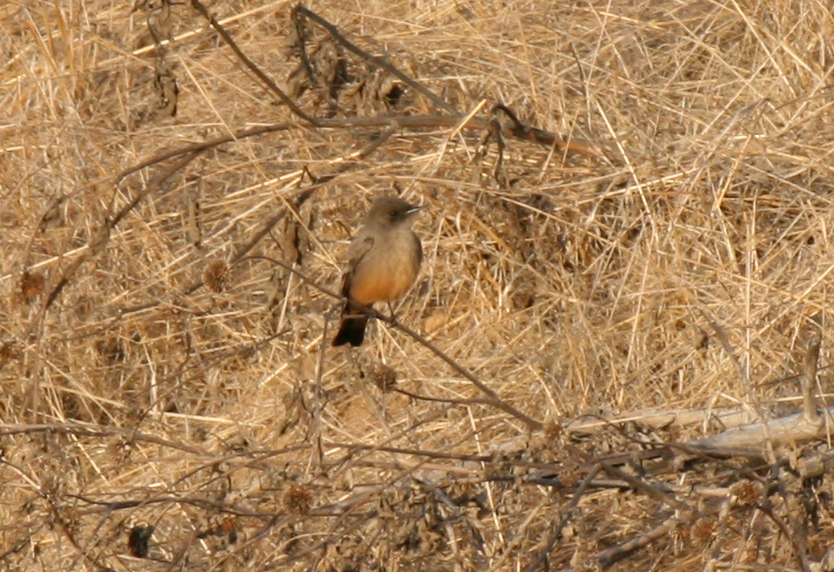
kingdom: Animalia
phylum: Chordata
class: Aves
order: Passeriformes
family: Tyrannidae
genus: Sayornis
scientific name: Sayornis saya
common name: Say's phoebe
